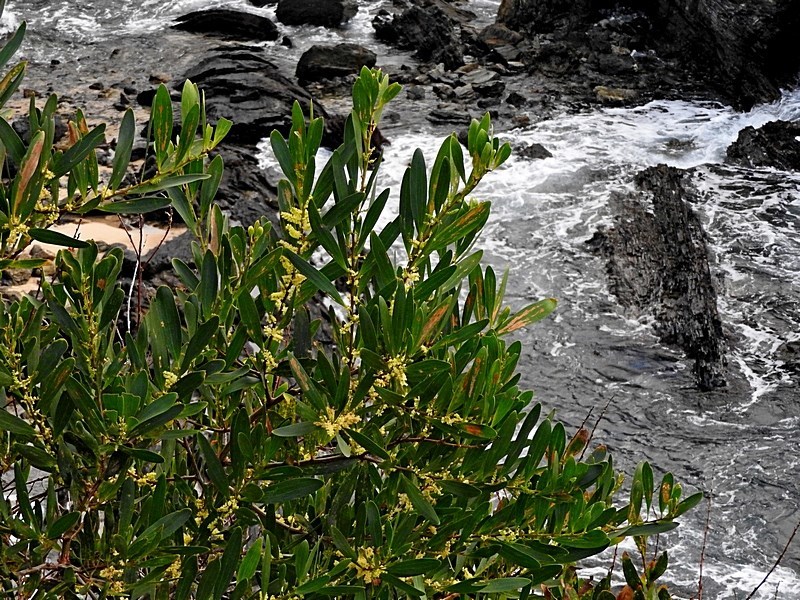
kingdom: Plantae
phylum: Tracheophyta
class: Magnoliopsida
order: Fabales
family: Fabaceae
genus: Acacia
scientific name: Acacia longifolia
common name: Sydney golden wattle
